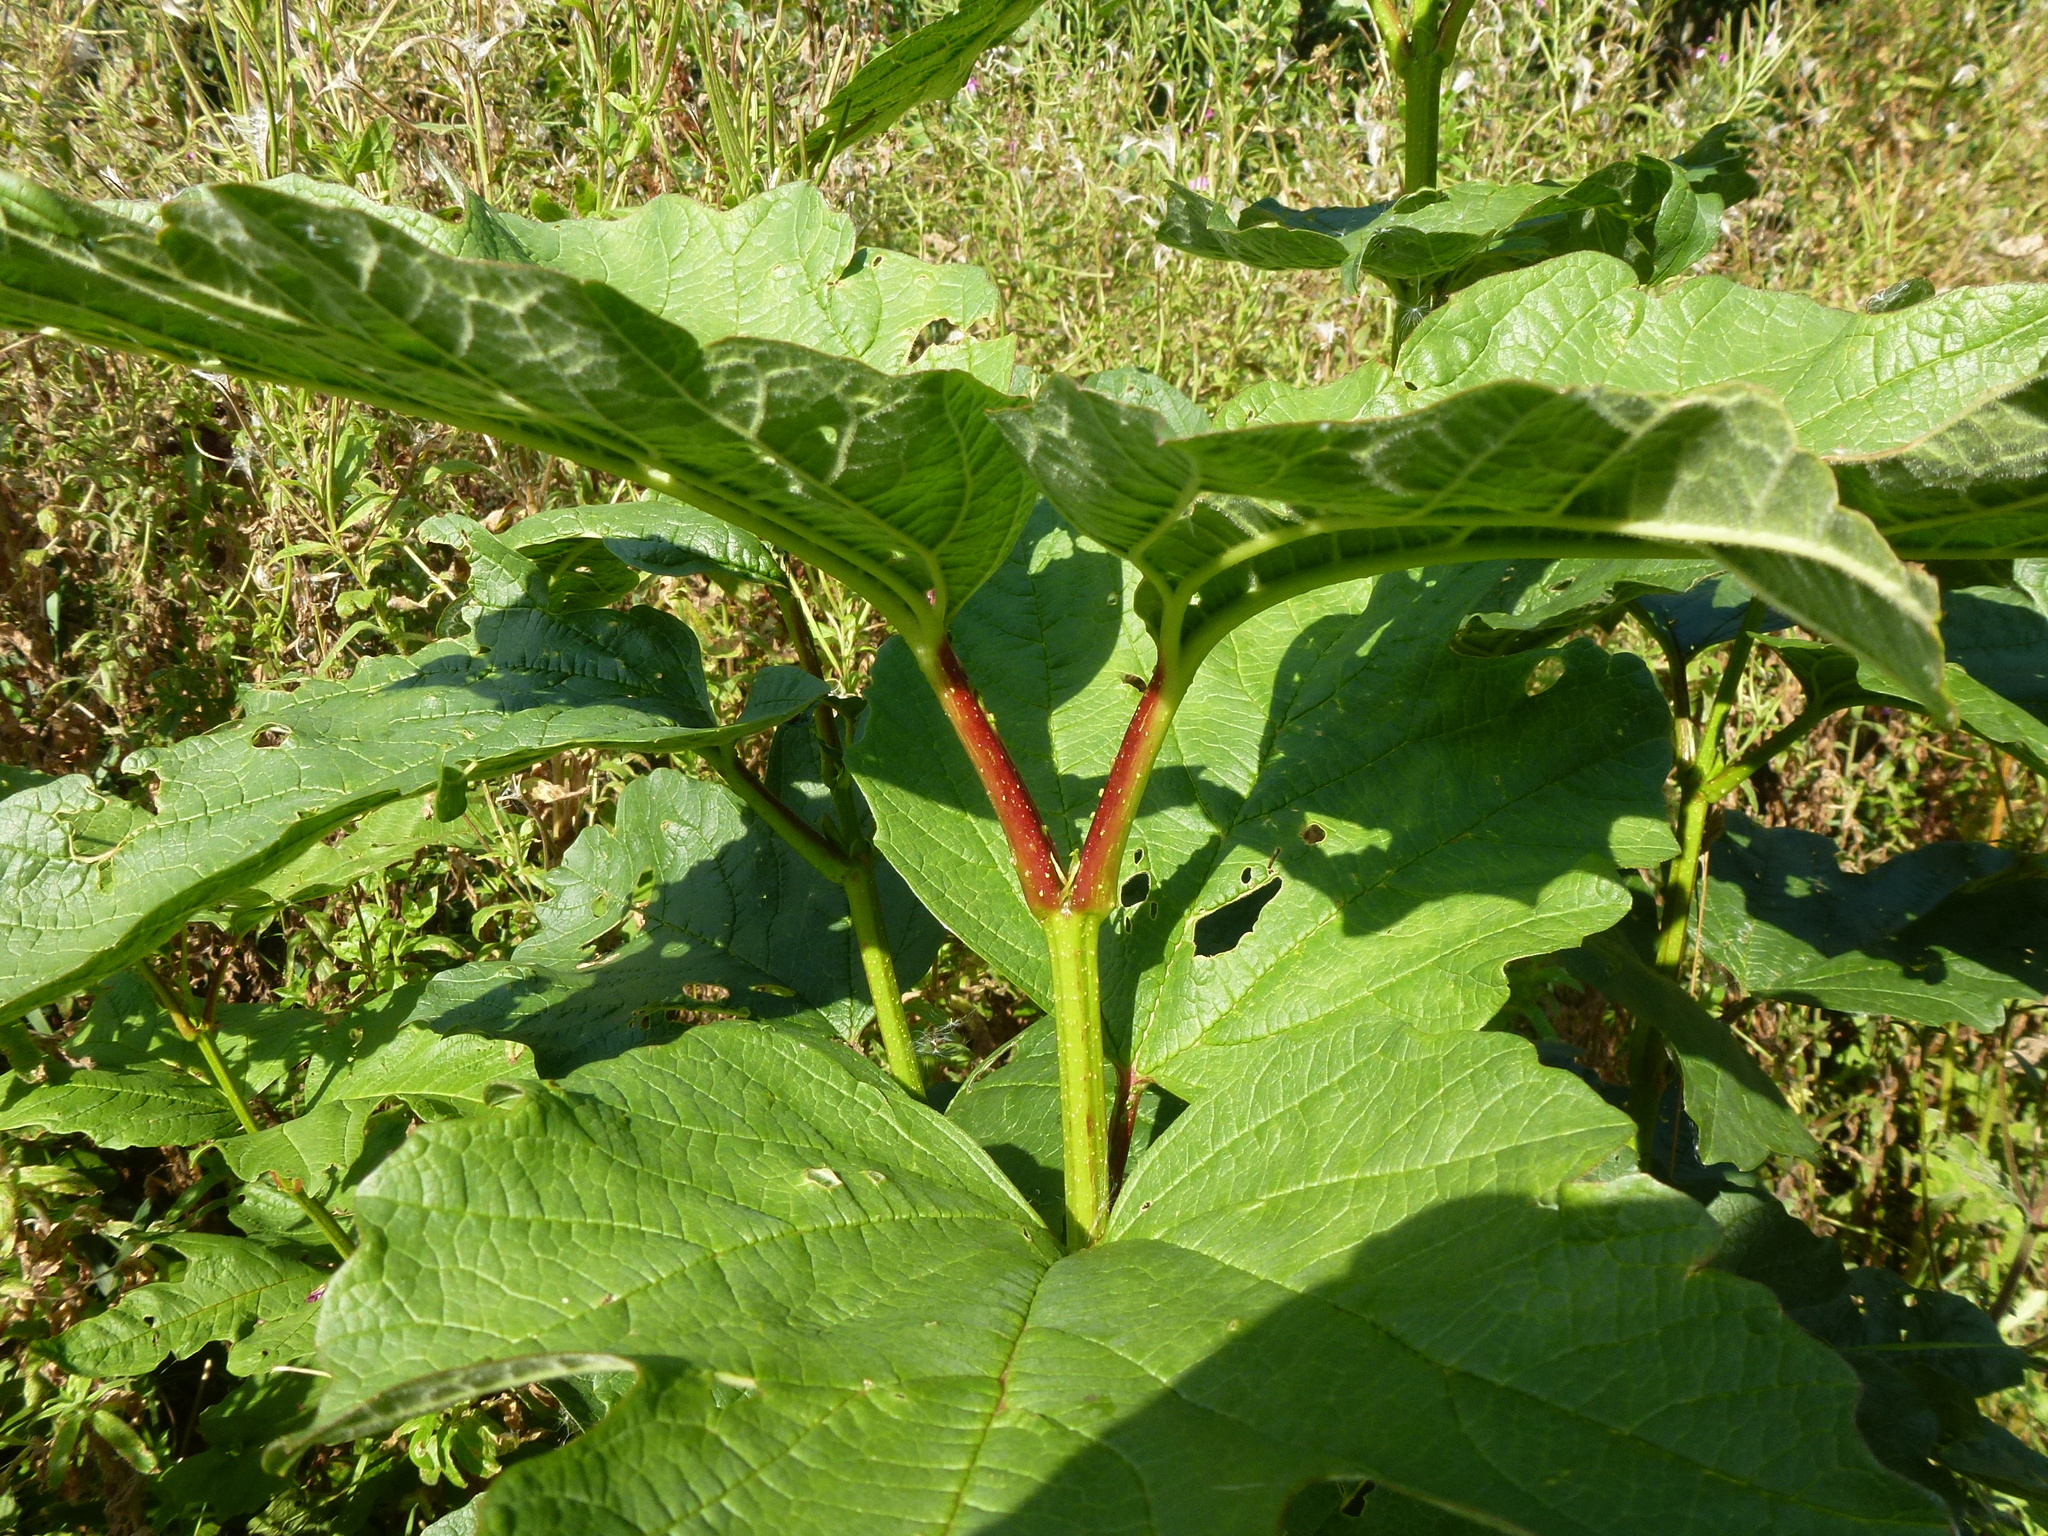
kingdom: Plantae
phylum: Tracheophyta
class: Magnoliopsida
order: Dipsacales
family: Viburnaceae
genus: Viburnum
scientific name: Viburnum opulus
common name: Guelder-rose
